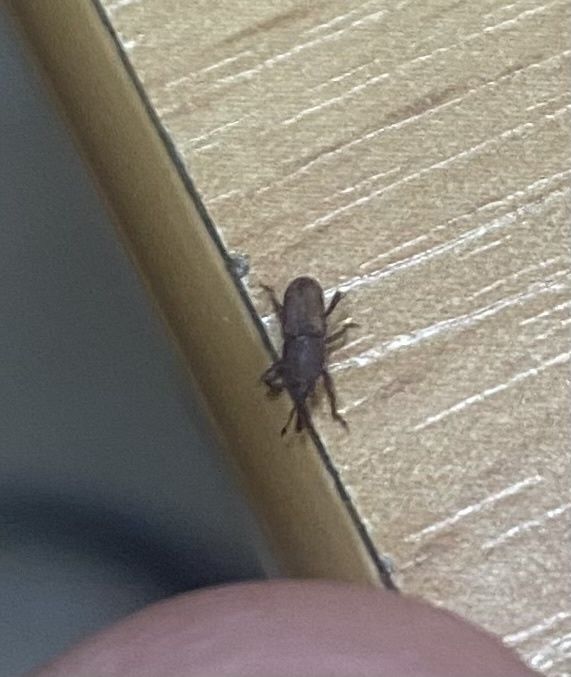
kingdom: Animalia
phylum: Arthropoda
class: Insecta
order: Coleoptera
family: Dryophthoridae
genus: Sitophilus
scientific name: Sitophilus
